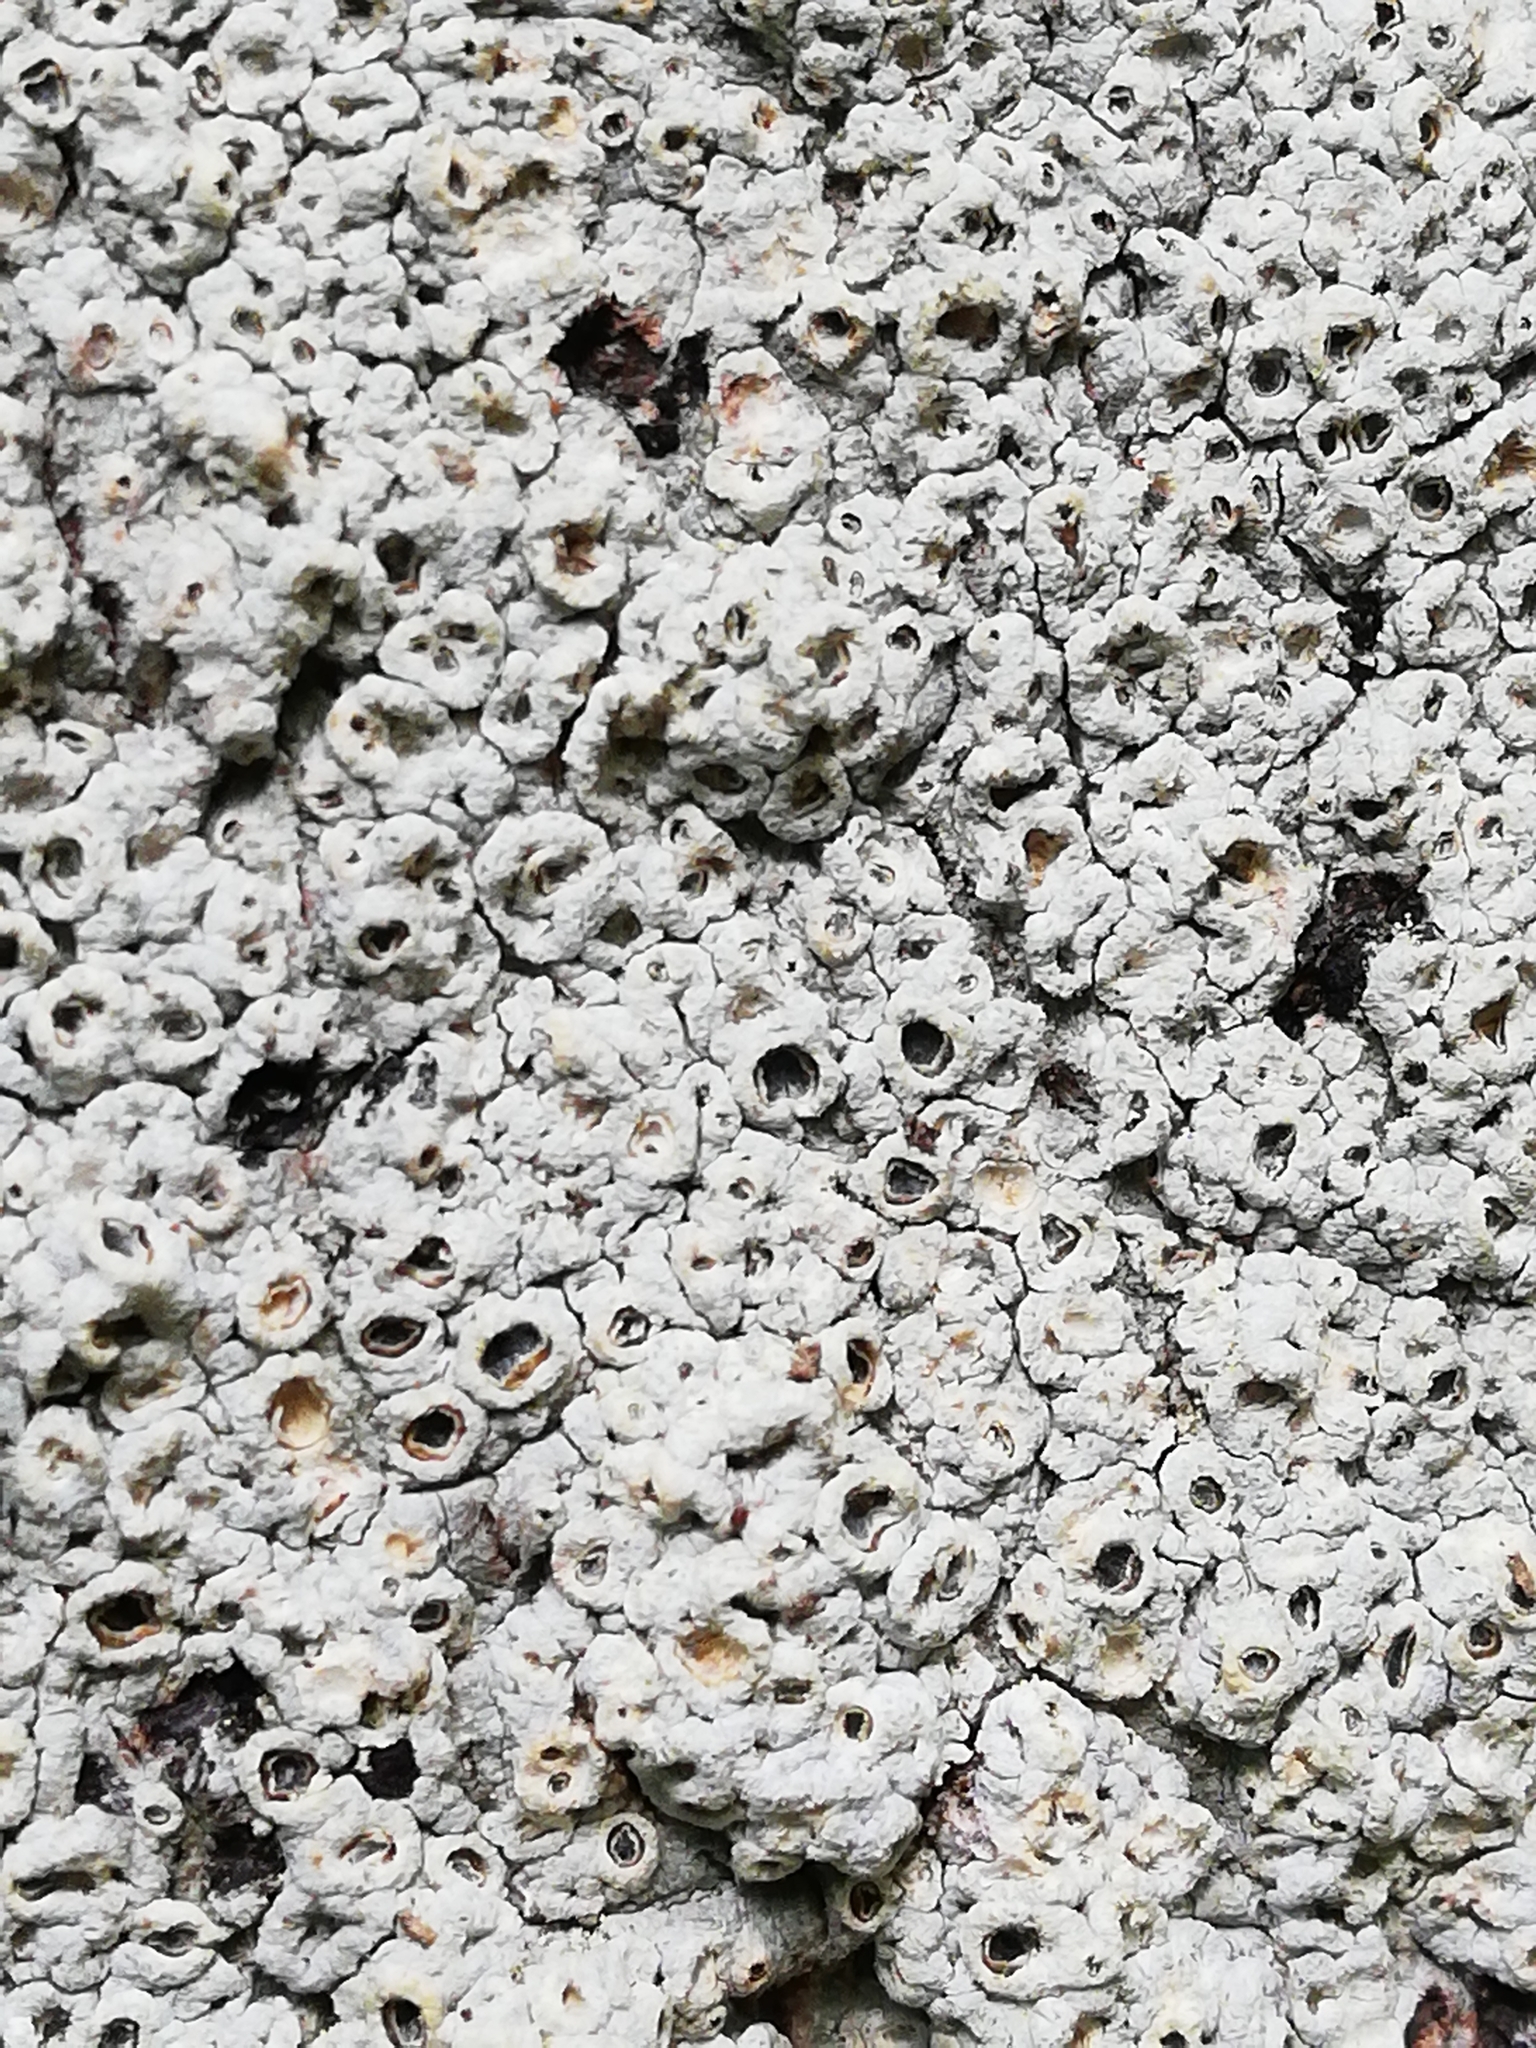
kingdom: Fungi
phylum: Ascomycota
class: Lecanoromycetes
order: Ostropales
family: Graphidaceae
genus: Thelotrema
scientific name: Thelotrema lepadinum
